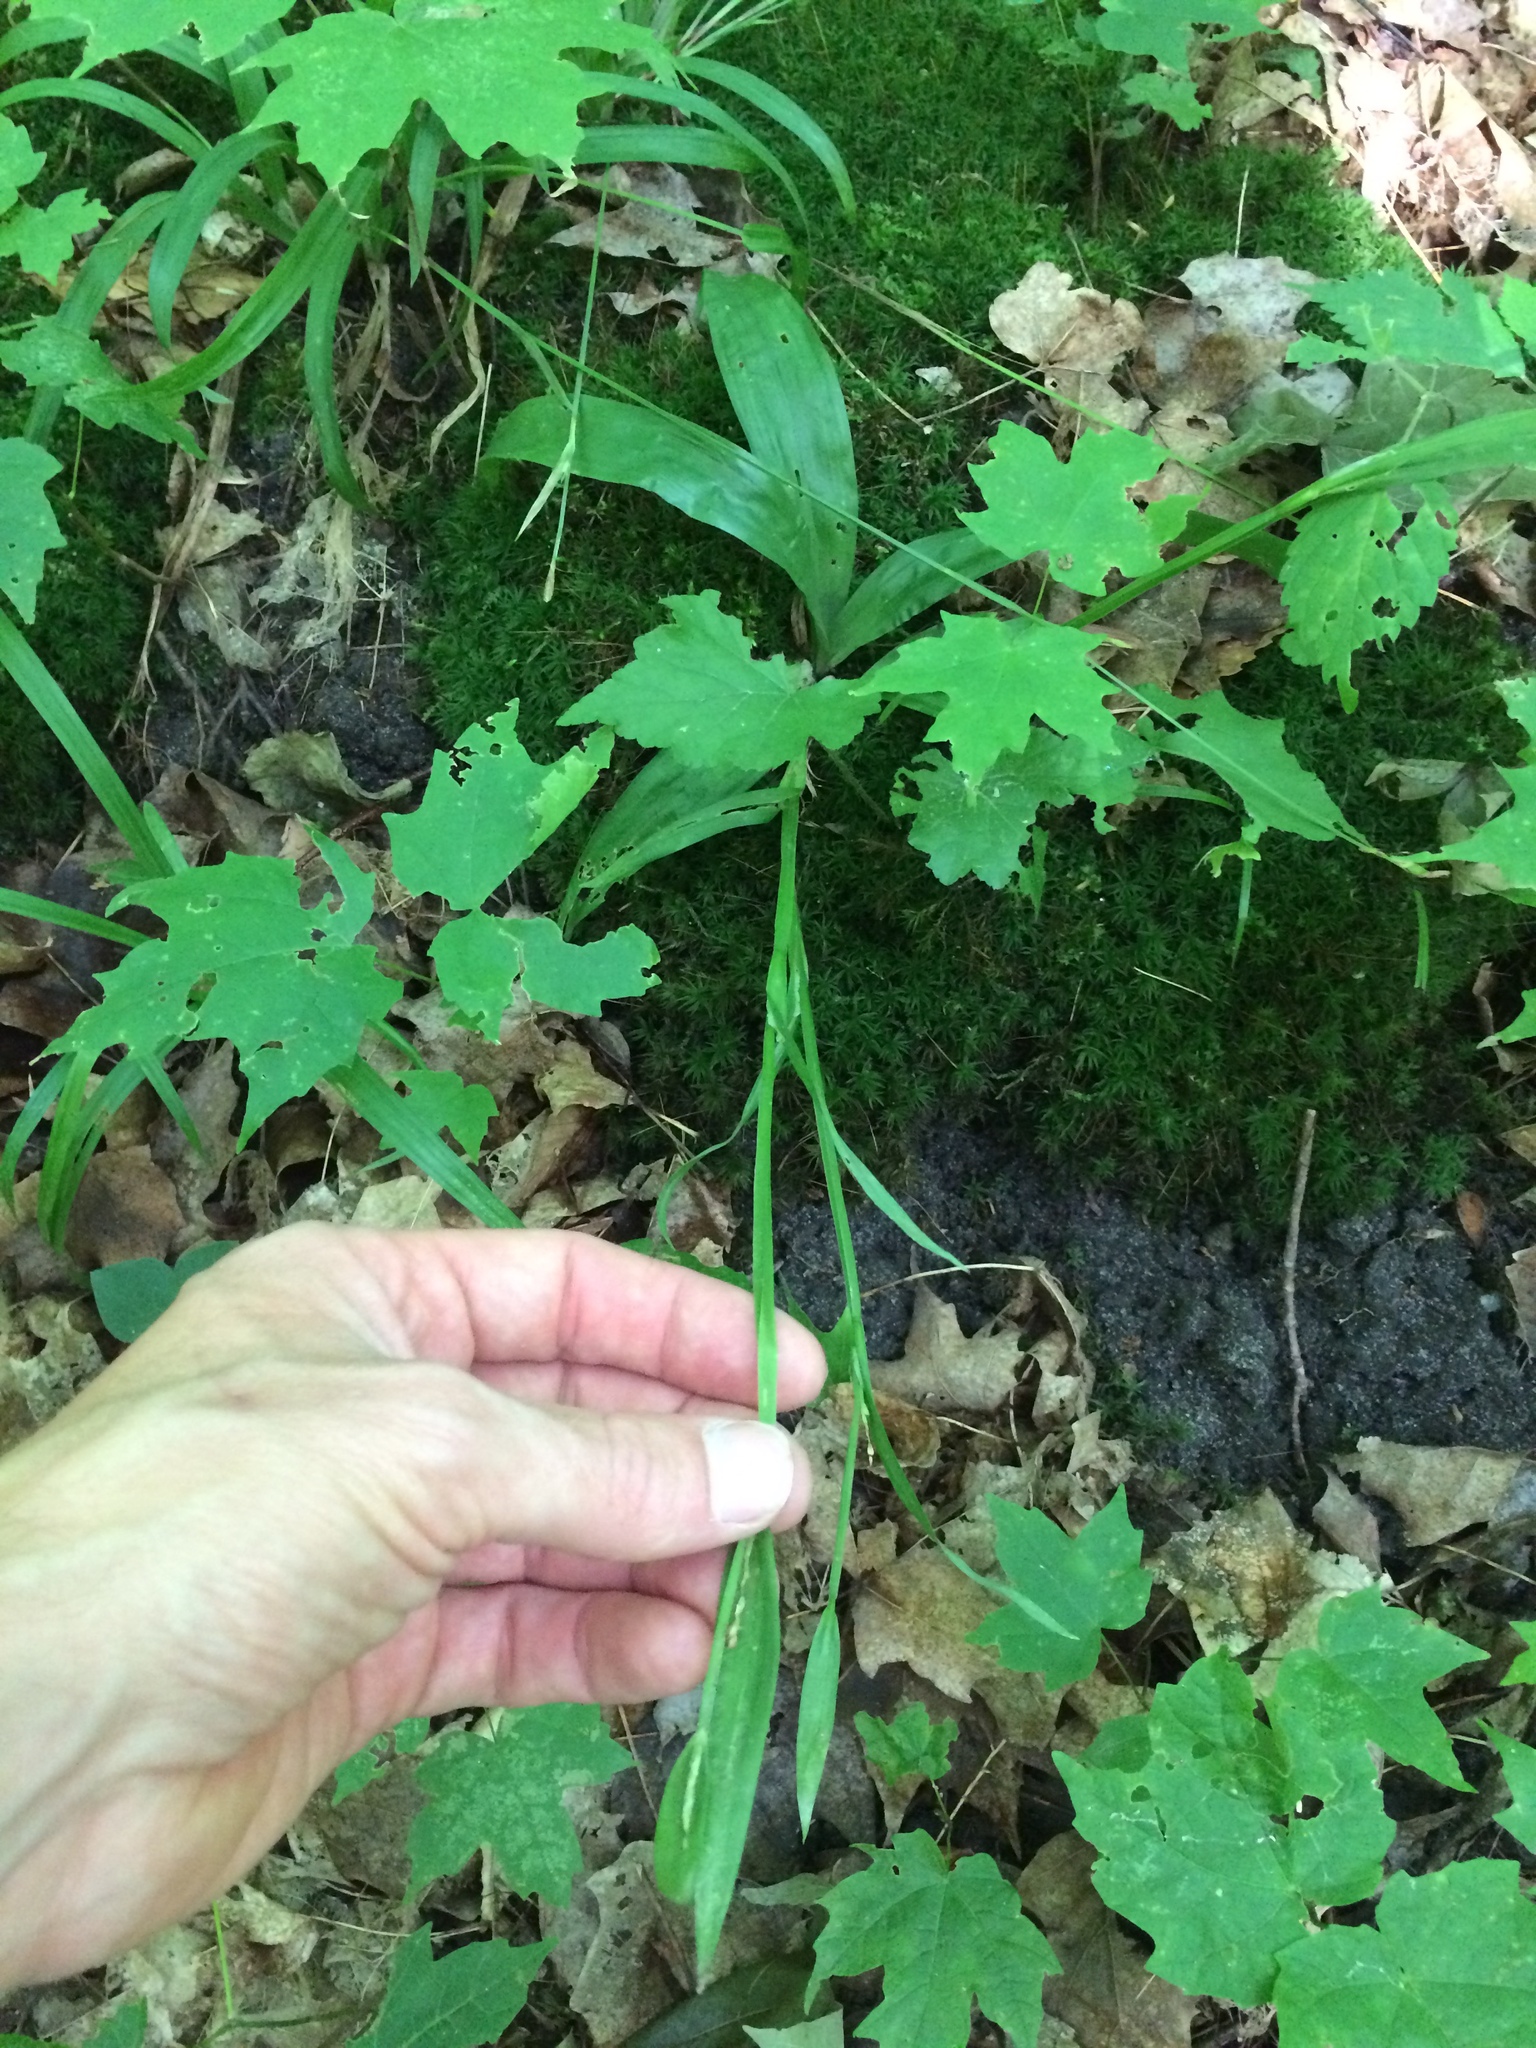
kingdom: Plantae
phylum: Tracheophyta
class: Liliopsida
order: Poales
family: Cyperaceae
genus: Carex
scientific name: Carex albursina
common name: Blunt-scale wood sedge
